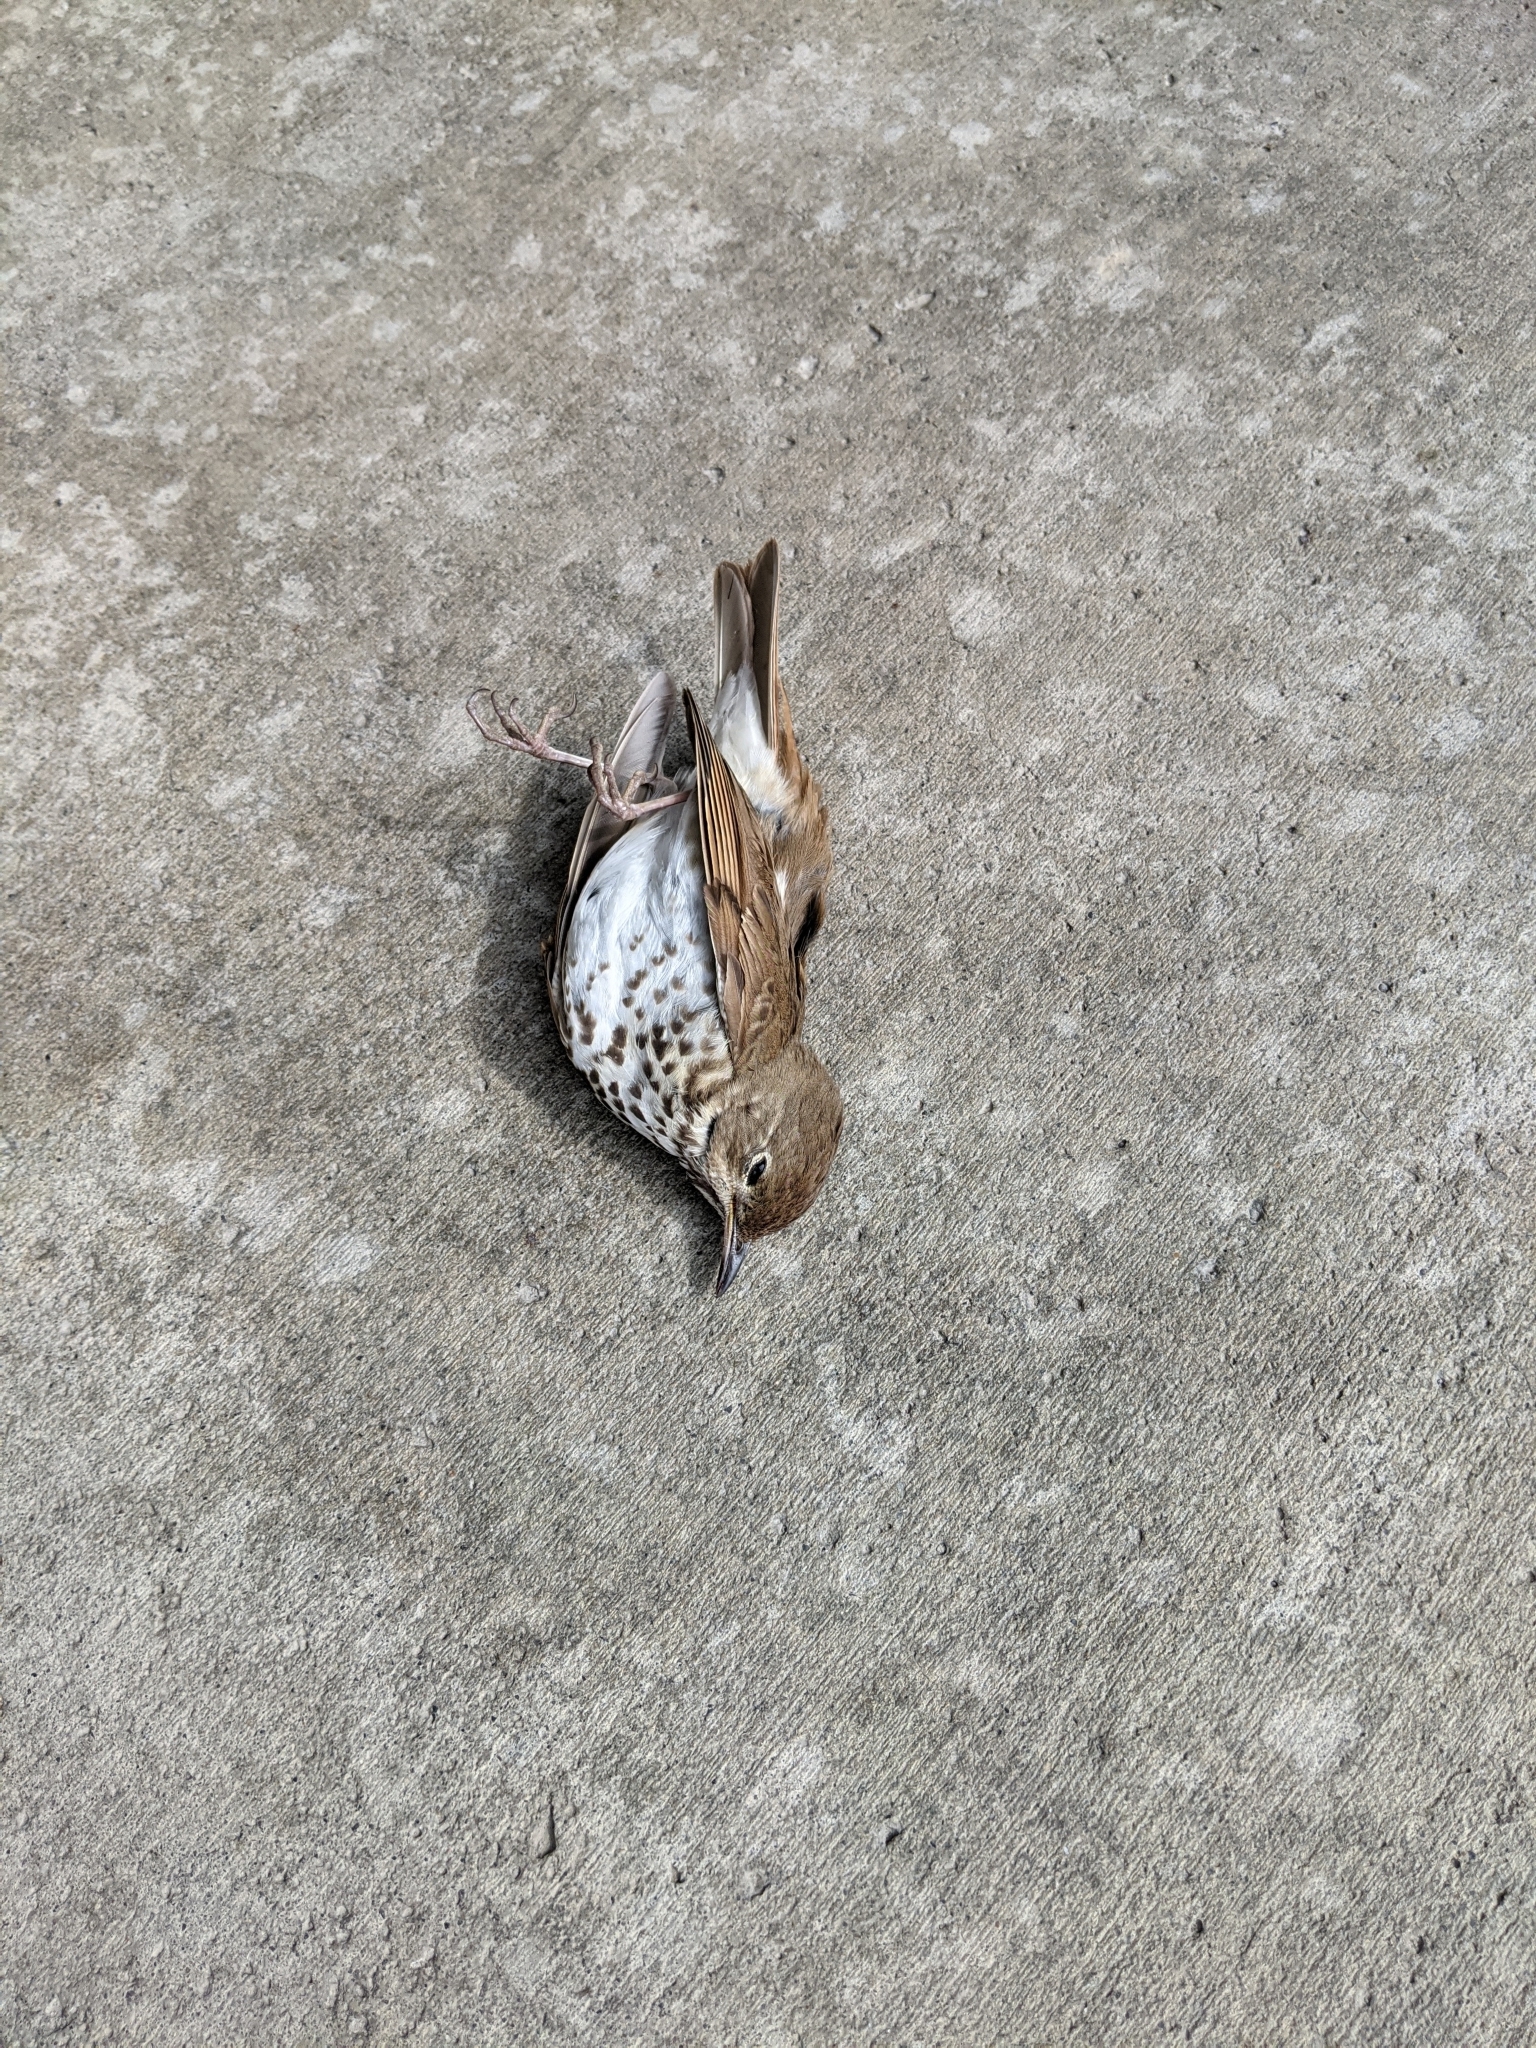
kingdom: Animalia
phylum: Chordata
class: Aves
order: Passeriformes
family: Turdidae
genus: Catharus
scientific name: Catharus guttatus
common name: Hermit thrush
